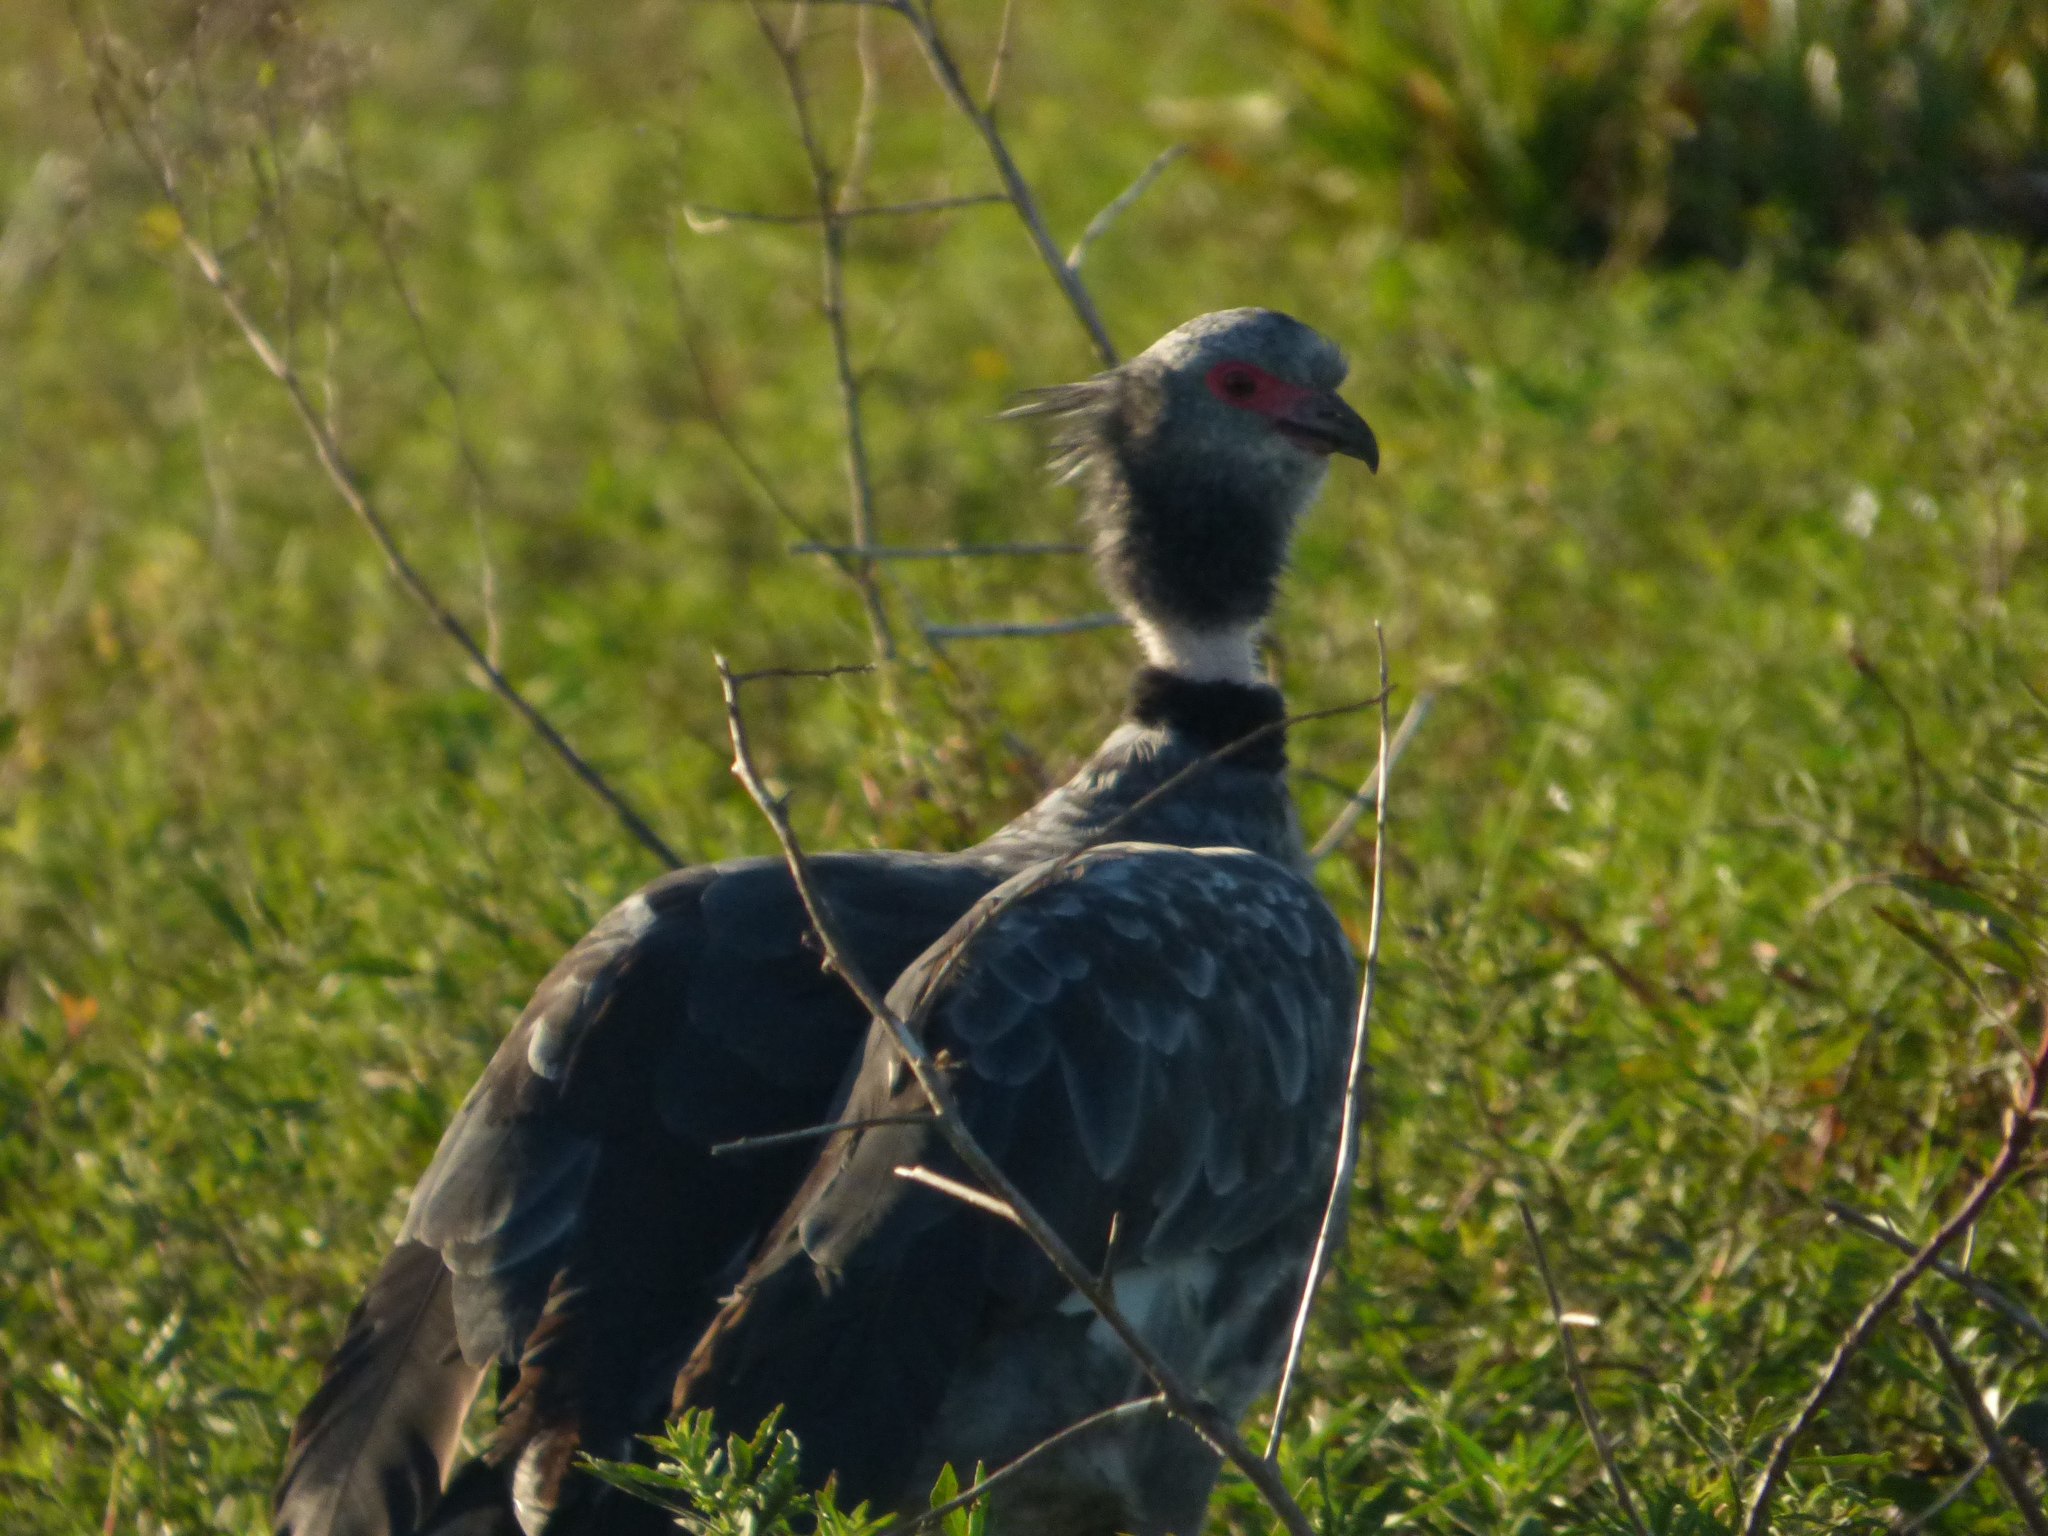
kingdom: Animalia
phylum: Chordata
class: Aves
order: Anseriformes
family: Anhimidae
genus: Chauna
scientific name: Chauna torquata
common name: Southern screamer
